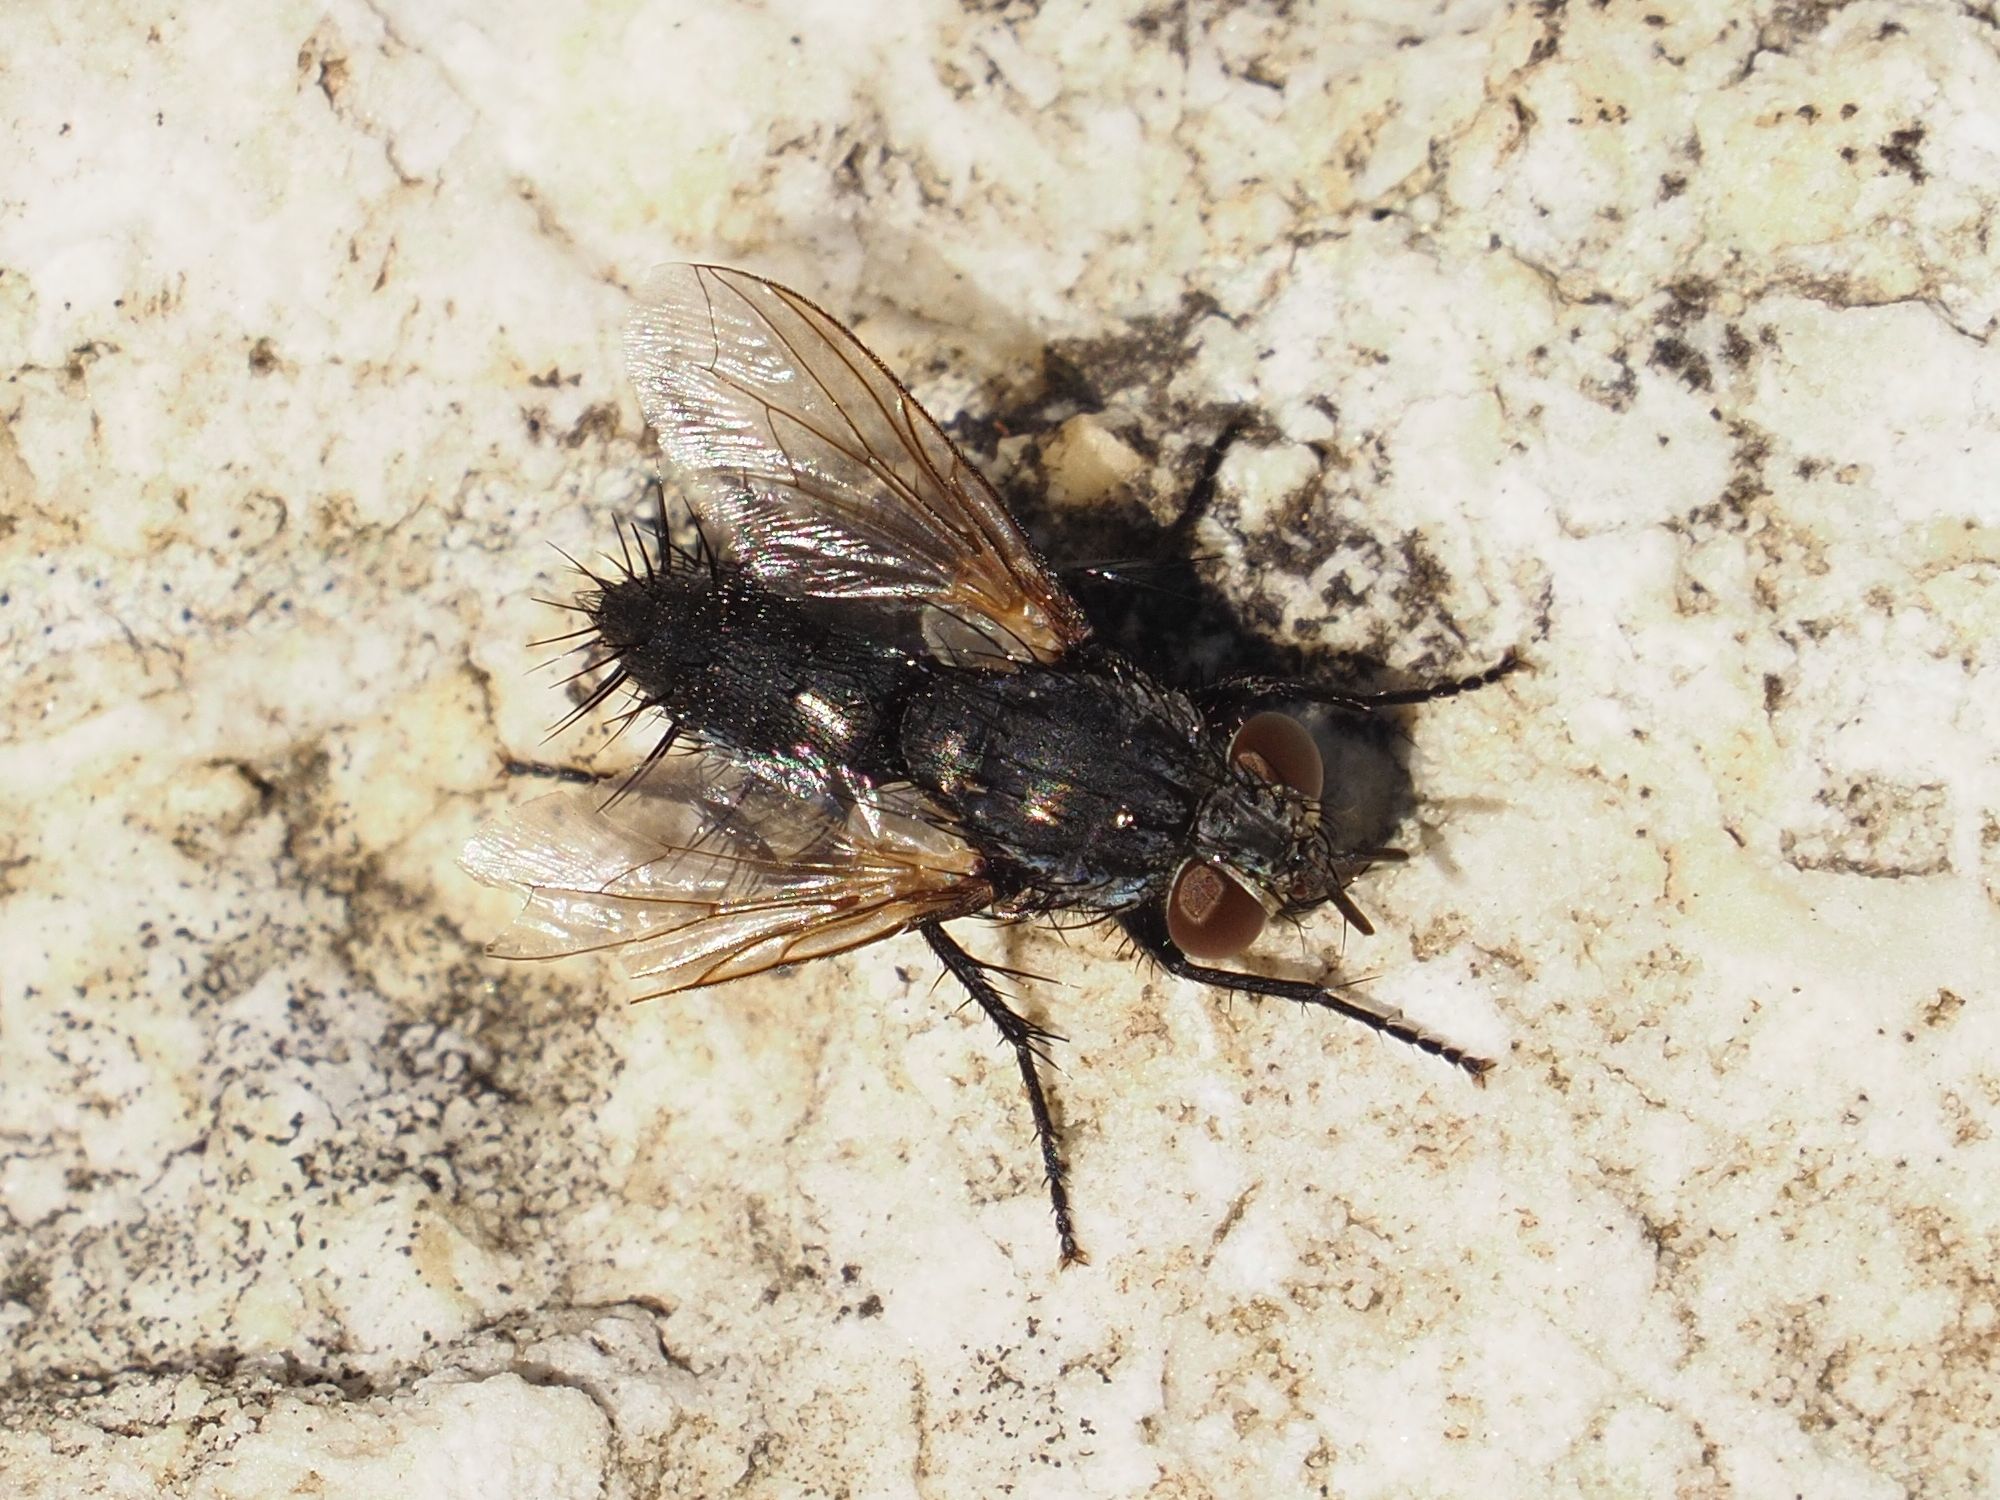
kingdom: Animalia
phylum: Arthropoda
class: Insecta
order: Diptera
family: Tachinidae
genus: Voria
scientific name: Voria ruralis
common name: Parasitic fly
